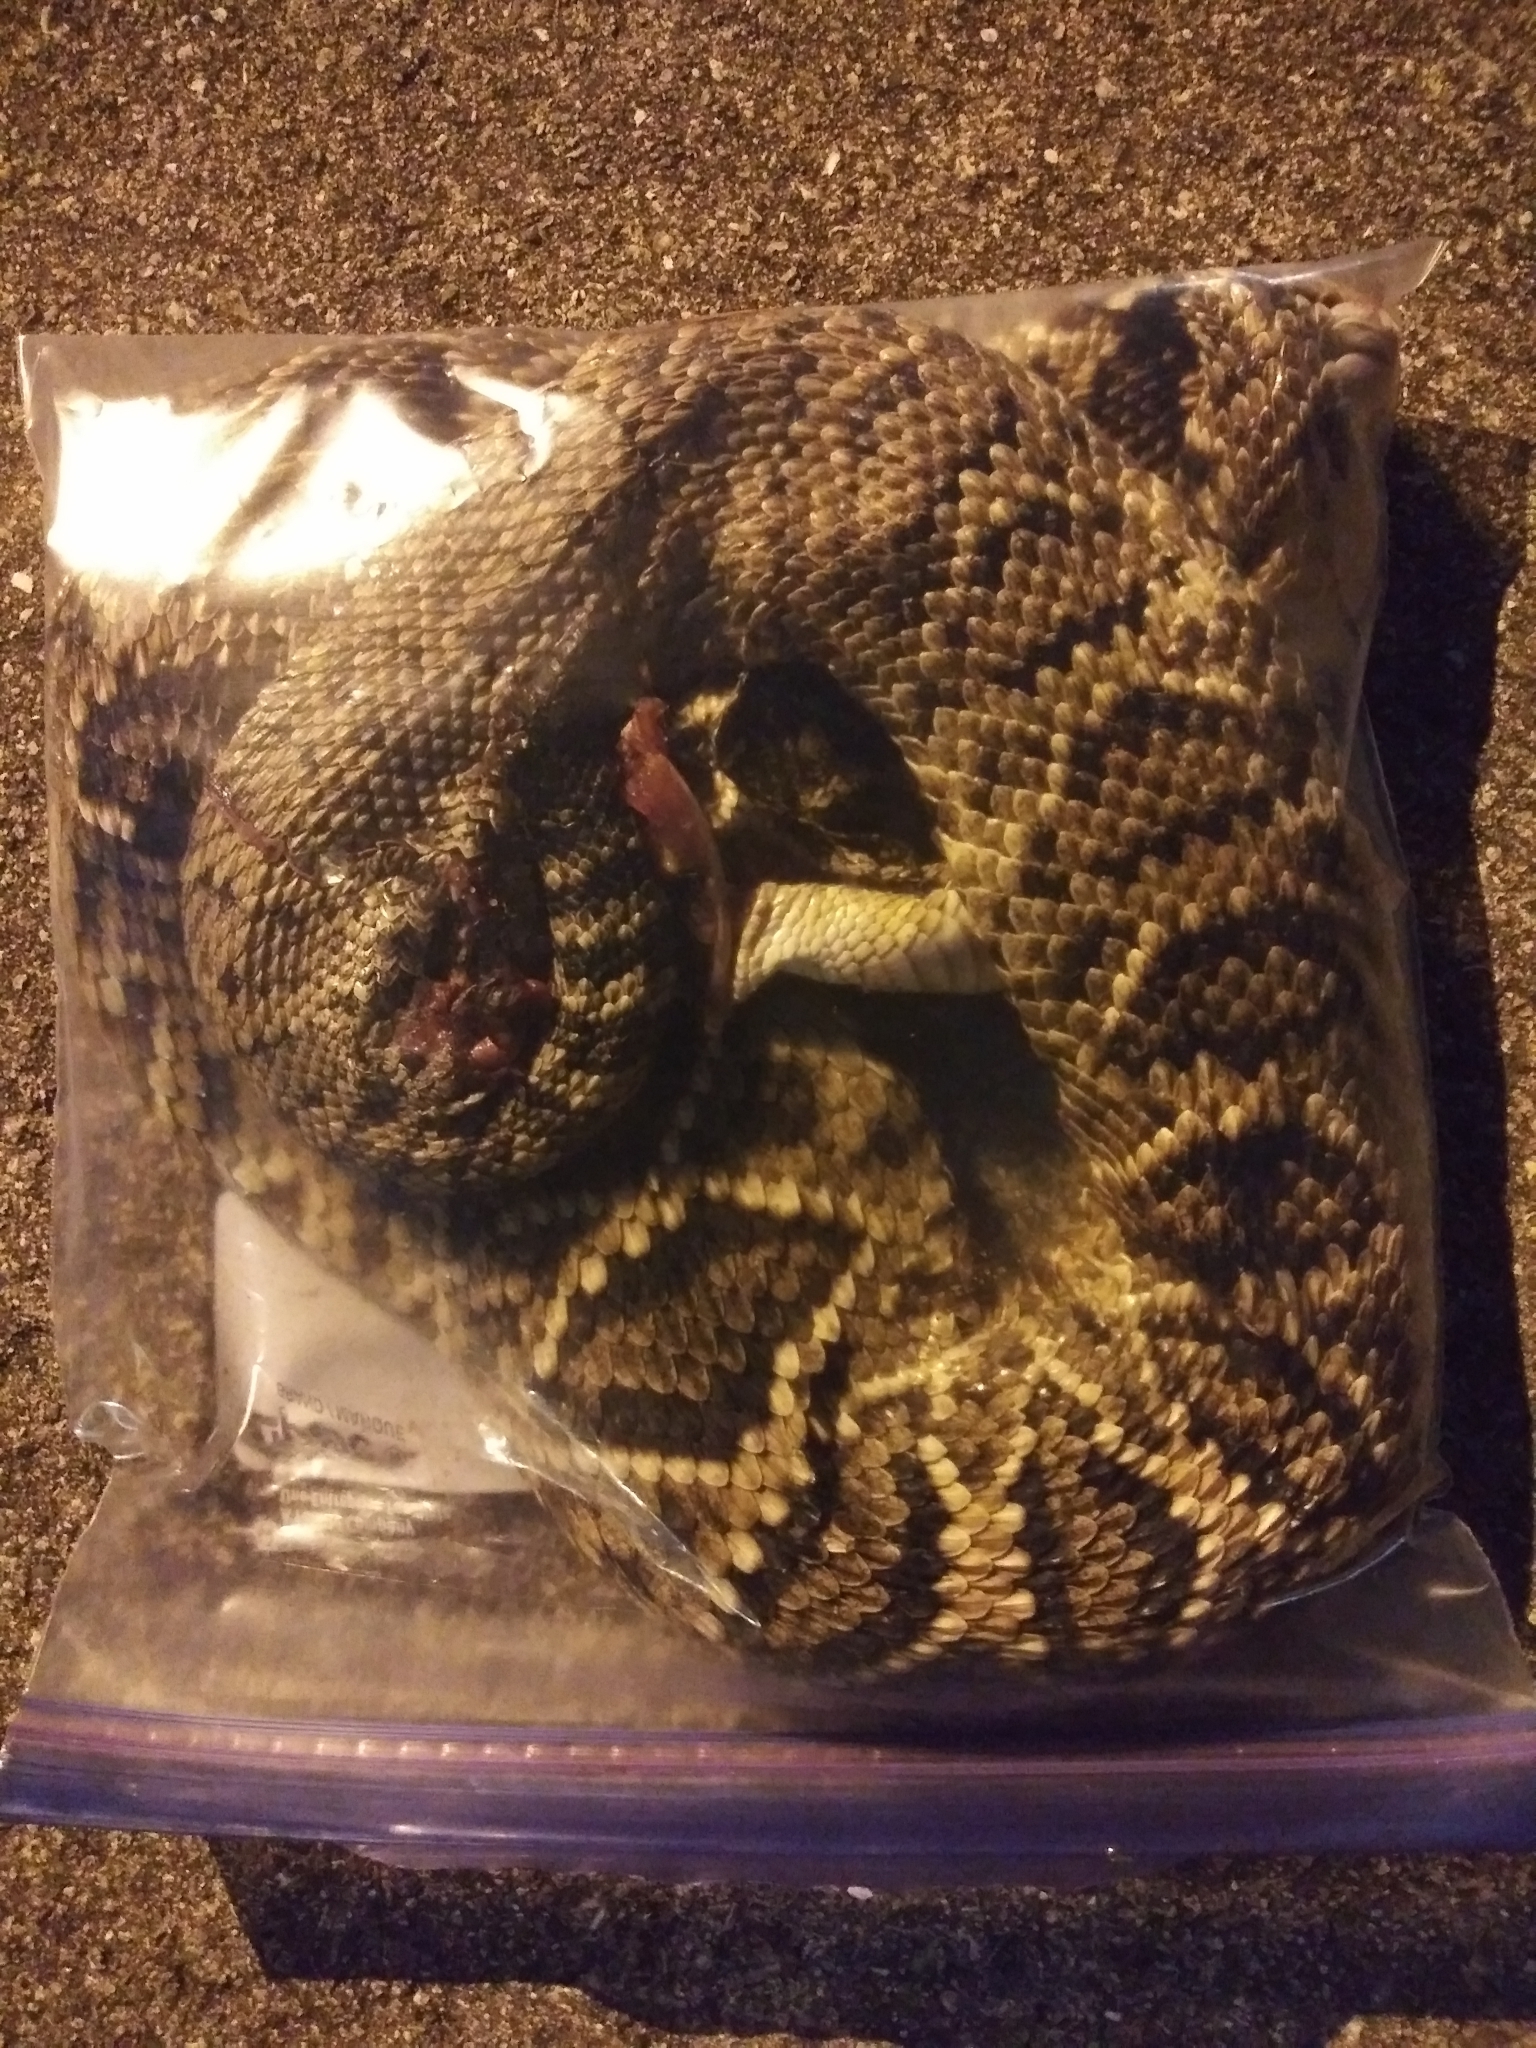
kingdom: Animalia
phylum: Chordata
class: Squamata
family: Viperidae
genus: Crotalus
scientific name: Crotalus adamanteus
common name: Eastern diamondback rattlesnake
